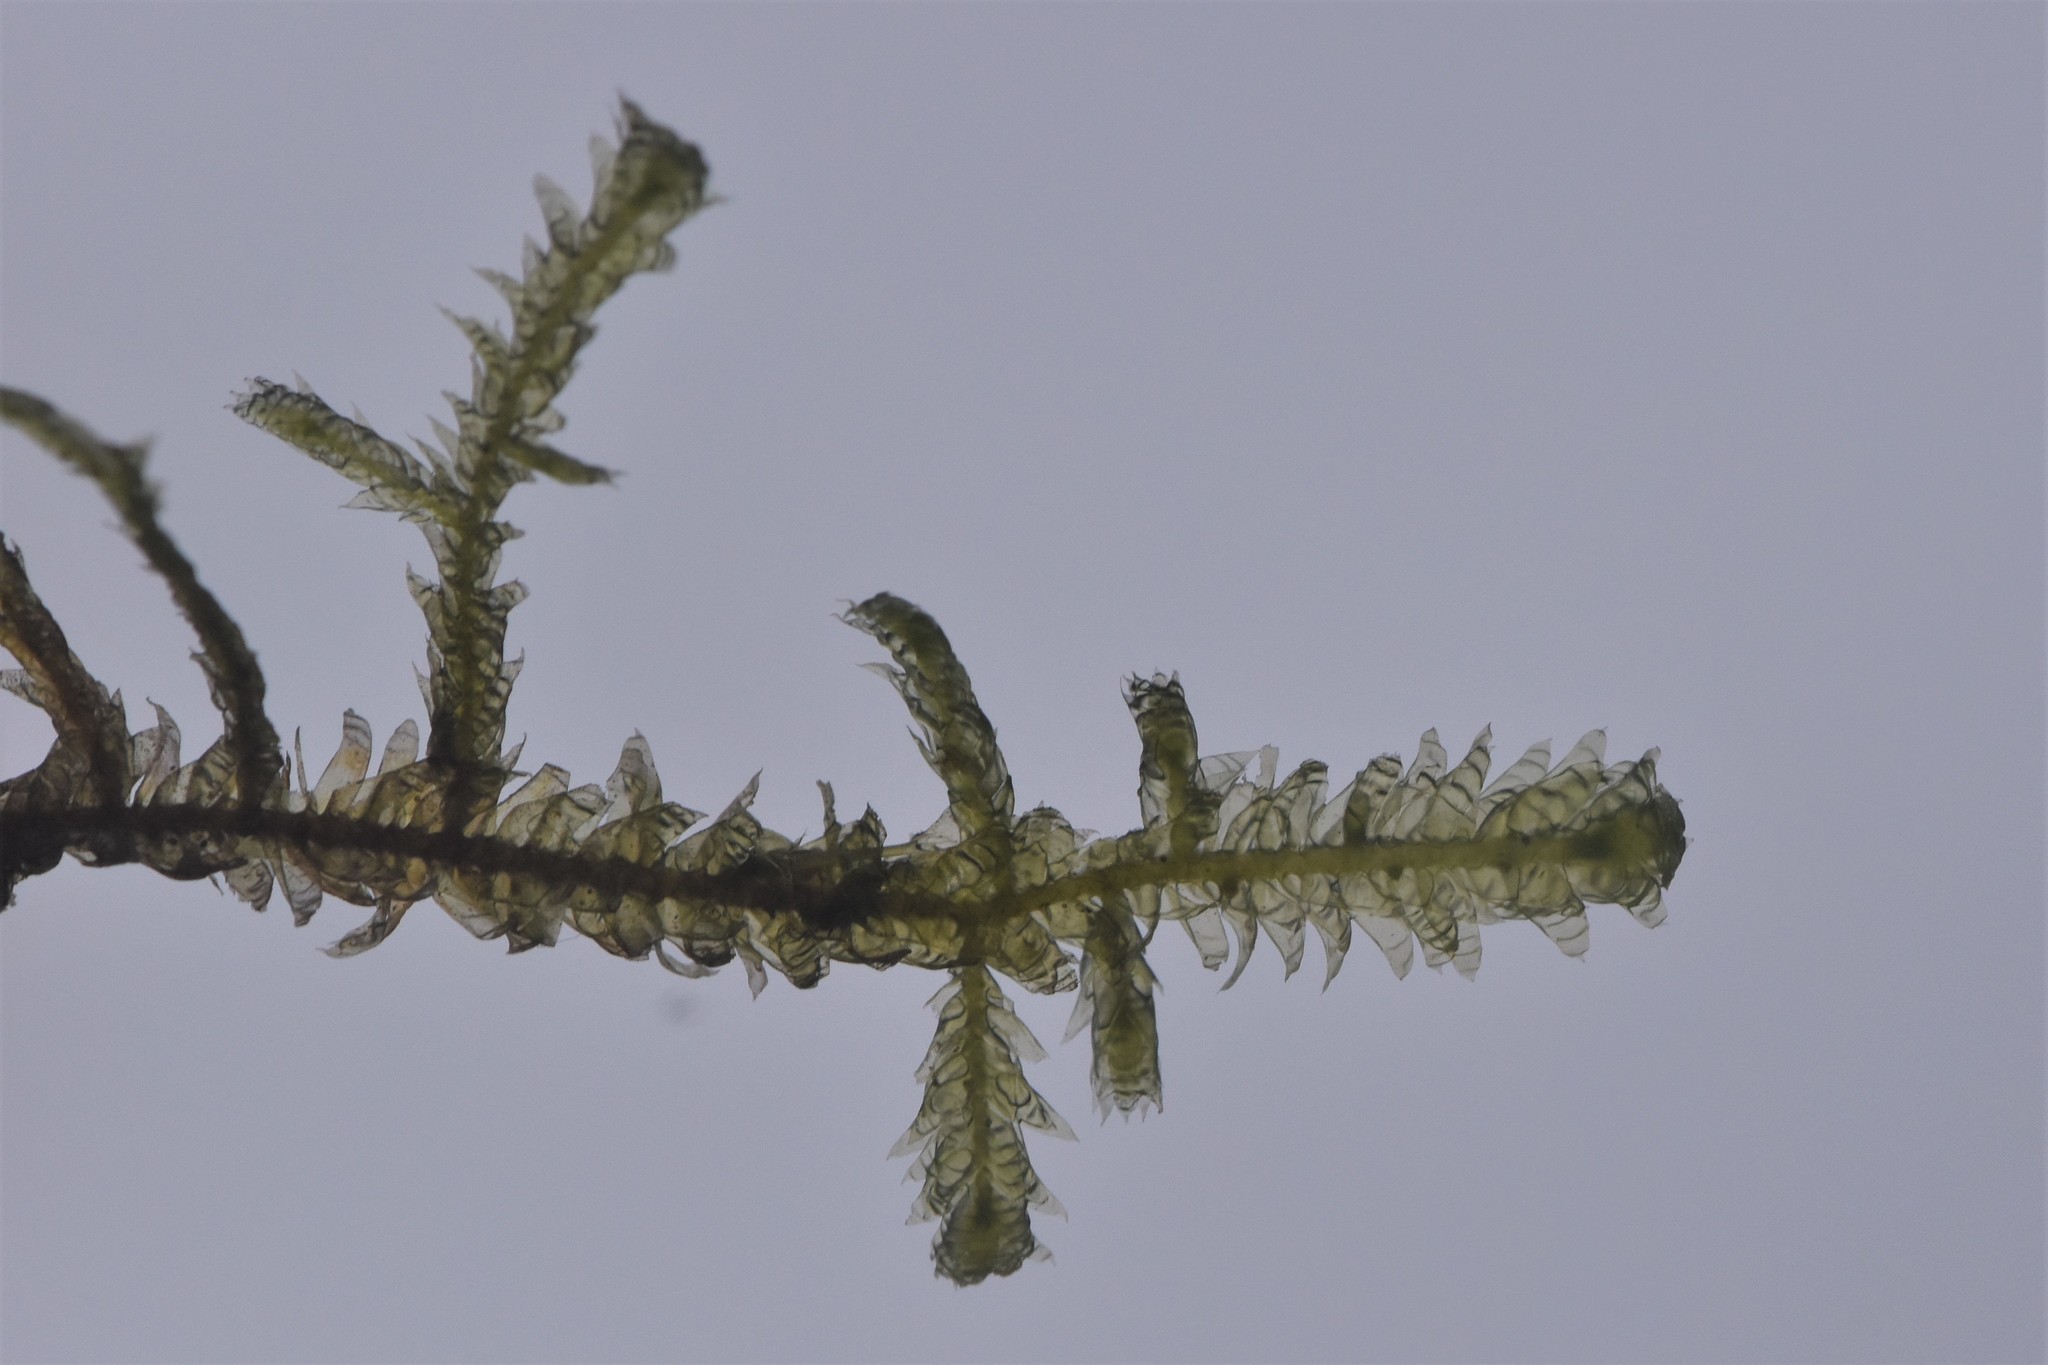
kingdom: Plantae
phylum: Bryophyta
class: Bryopsida
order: Hypnales
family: Neckeraceae
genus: Neckera
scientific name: Neckera douglasii
